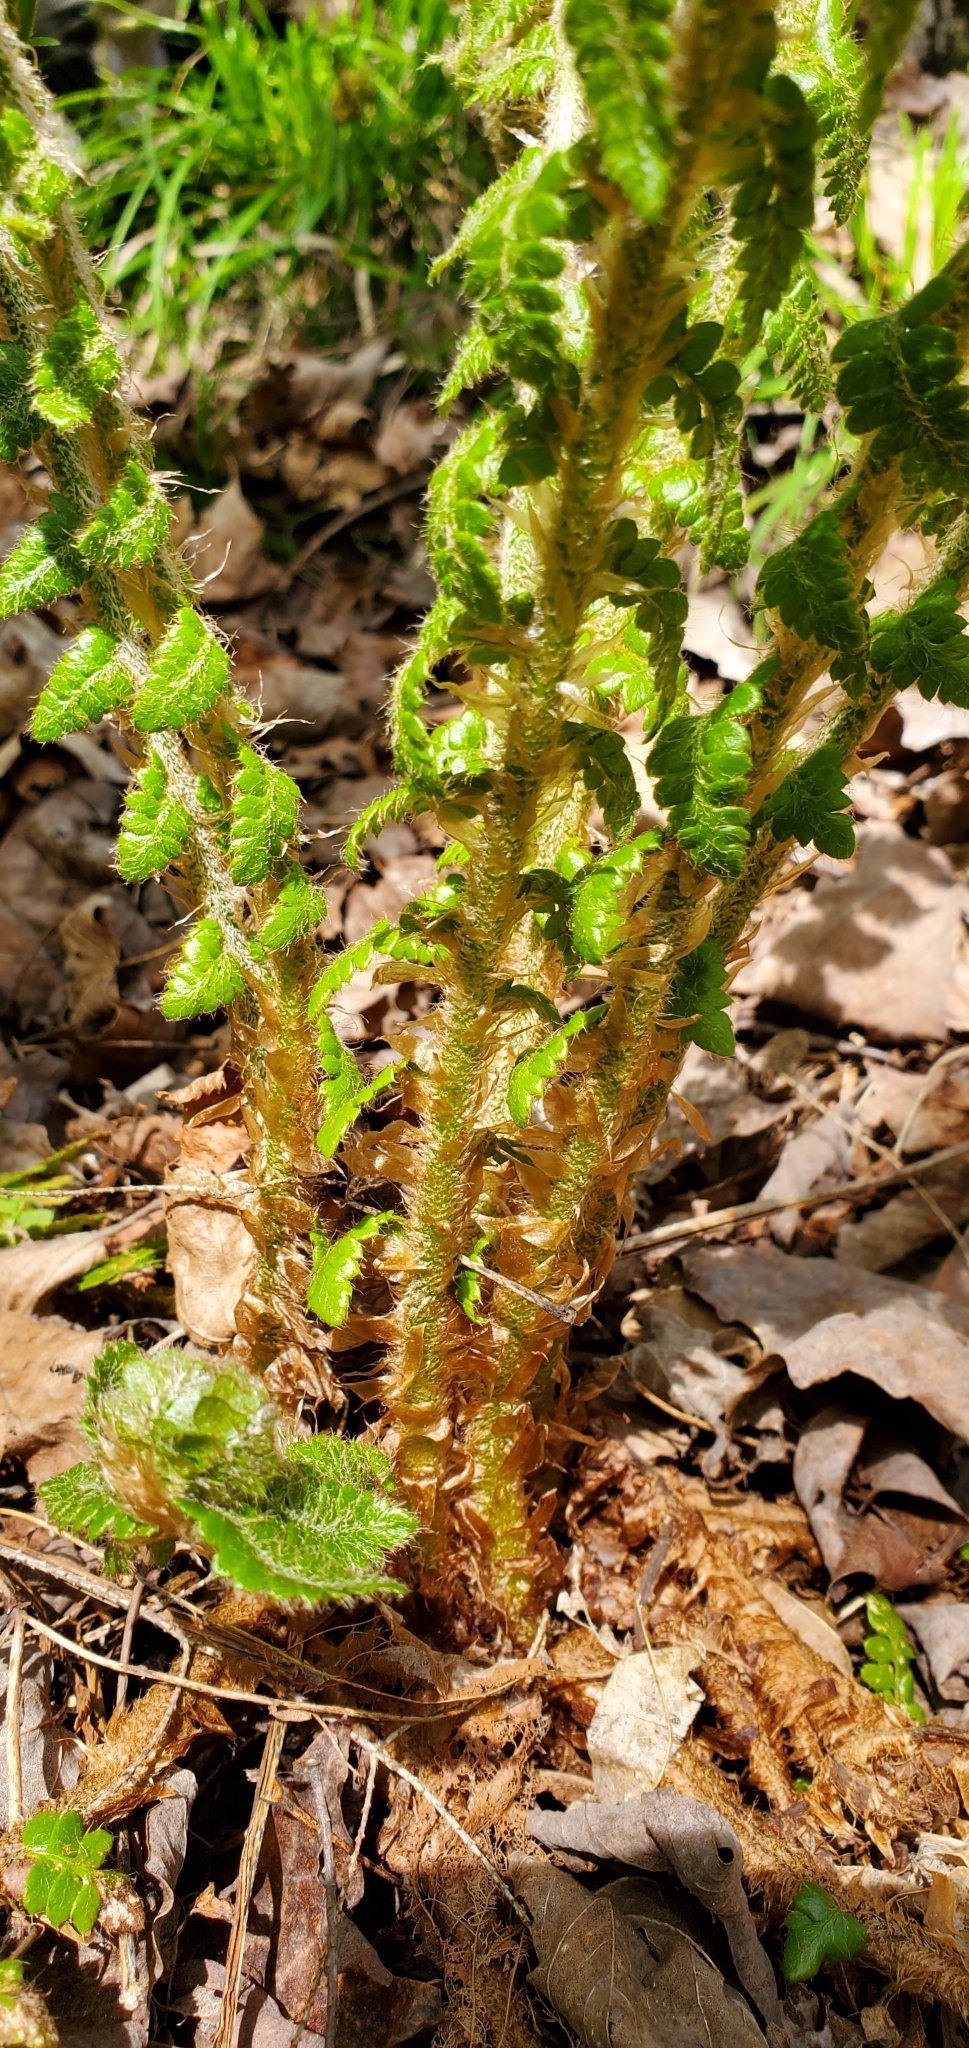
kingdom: Plantae
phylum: Tracheophyta
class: Polypodiopsida
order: Polypodiales
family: Dryopteridaceae
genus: Polystichum
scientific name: Polystichum braunii
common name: Braun's holly fern
